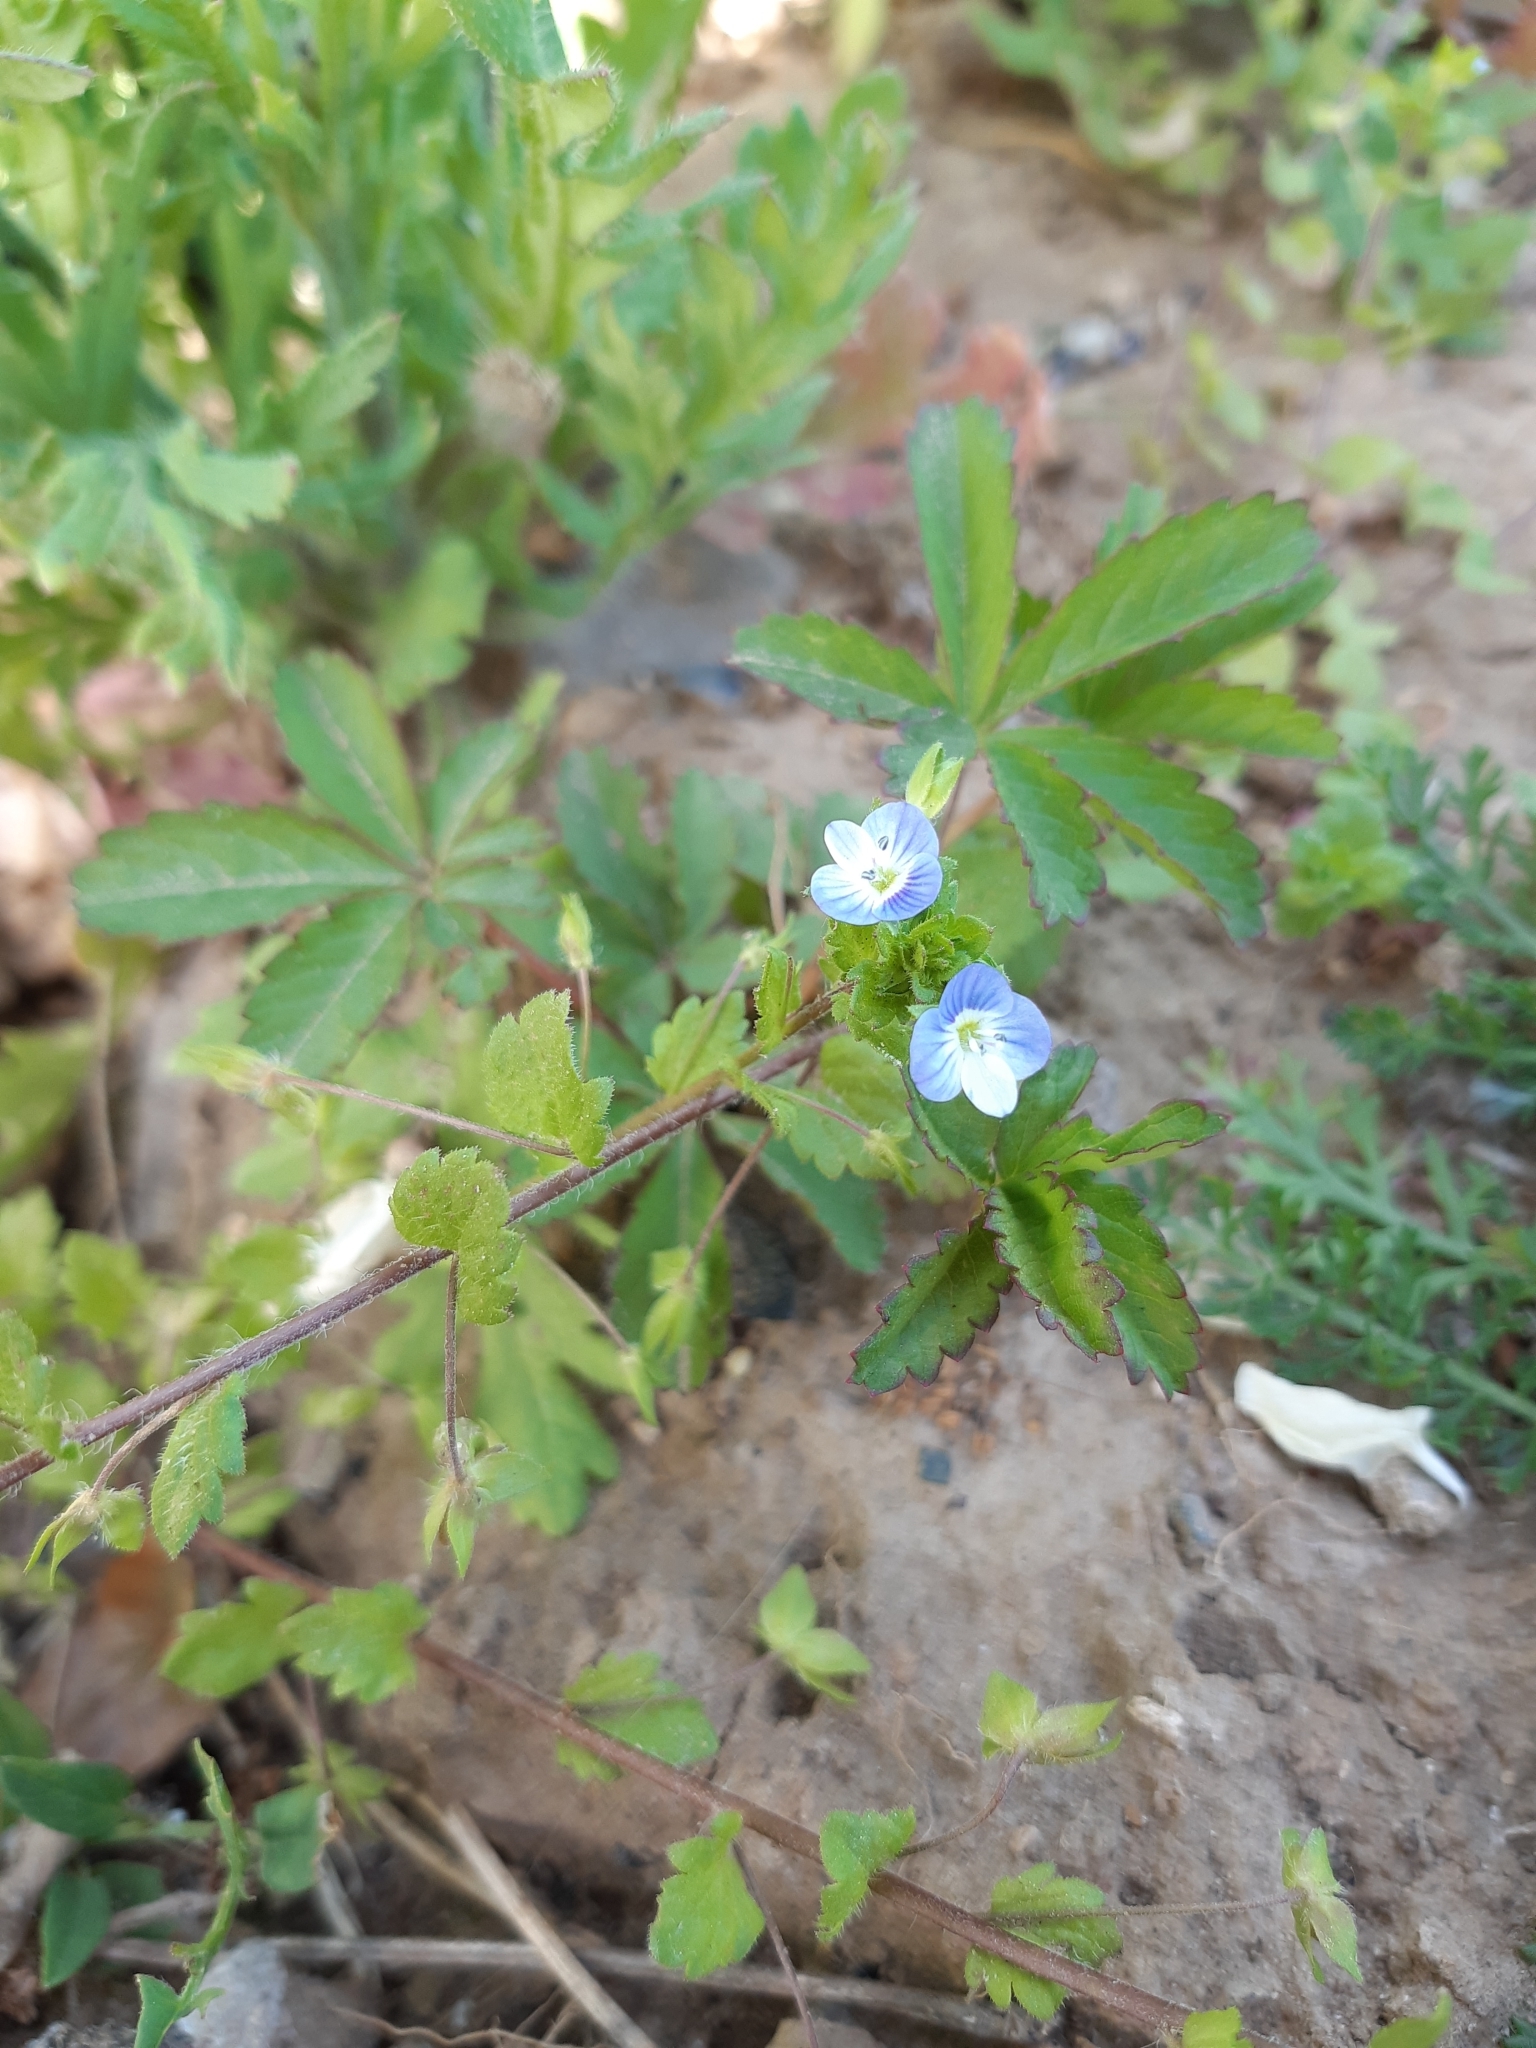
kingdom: Plantae
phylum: Tracheophyta
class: Magnoliopsida
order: Lamiales
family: Plantaginaceae
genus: Veronica
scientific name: Veronica persica
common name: Common field-speedwell
